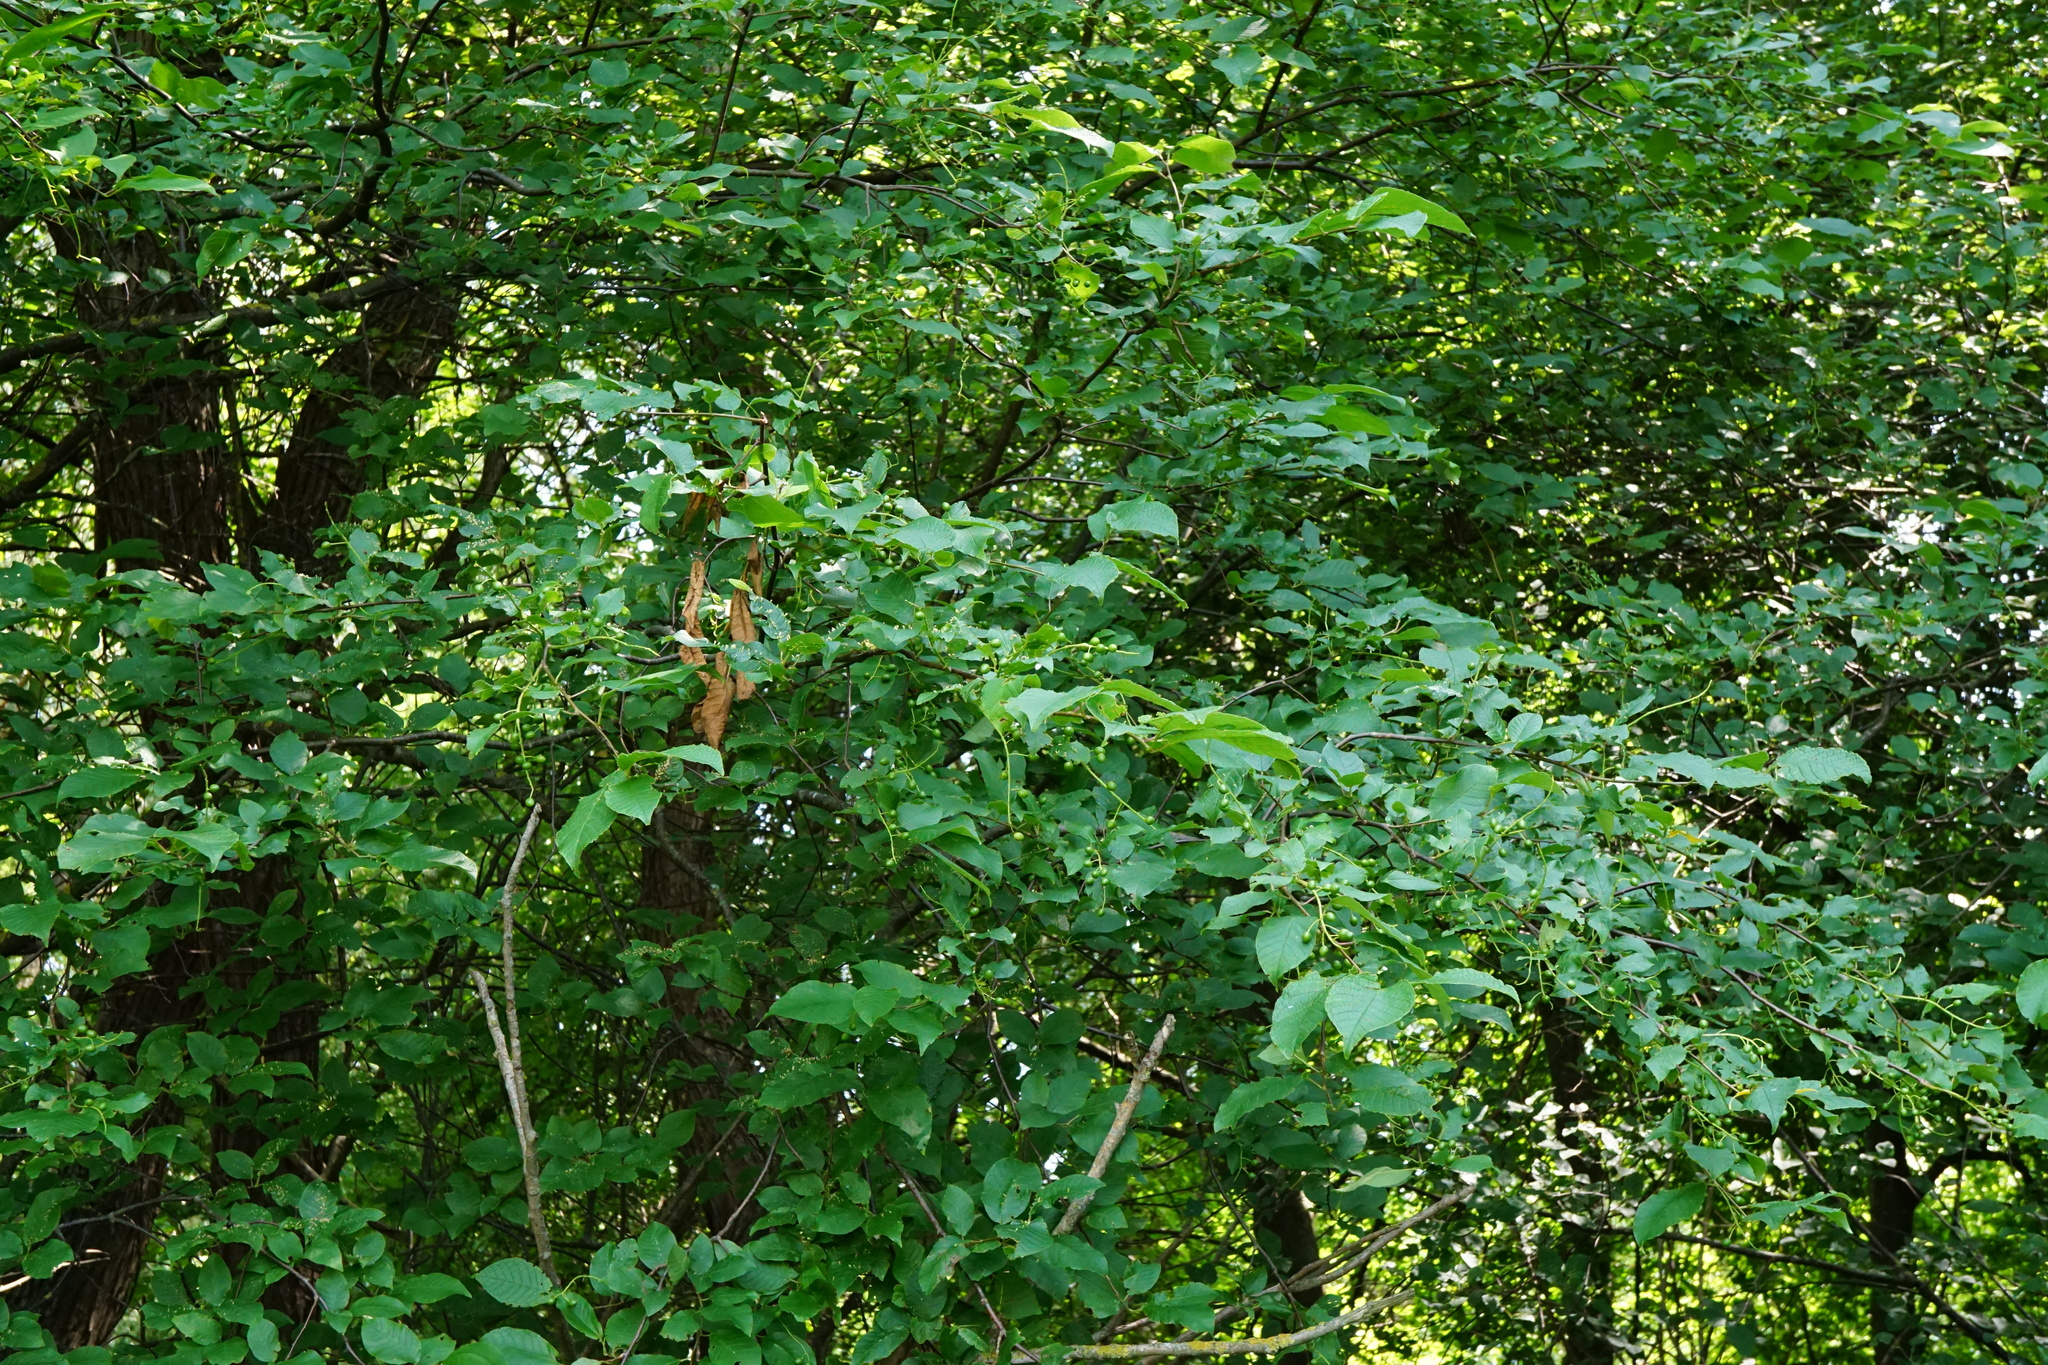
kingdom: Plantae
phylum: Tracheophyta
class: Magnoliopsida
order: Rosales
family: Rosaceae
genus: Prunus
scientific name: Prunus padus
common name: Bird cherry
